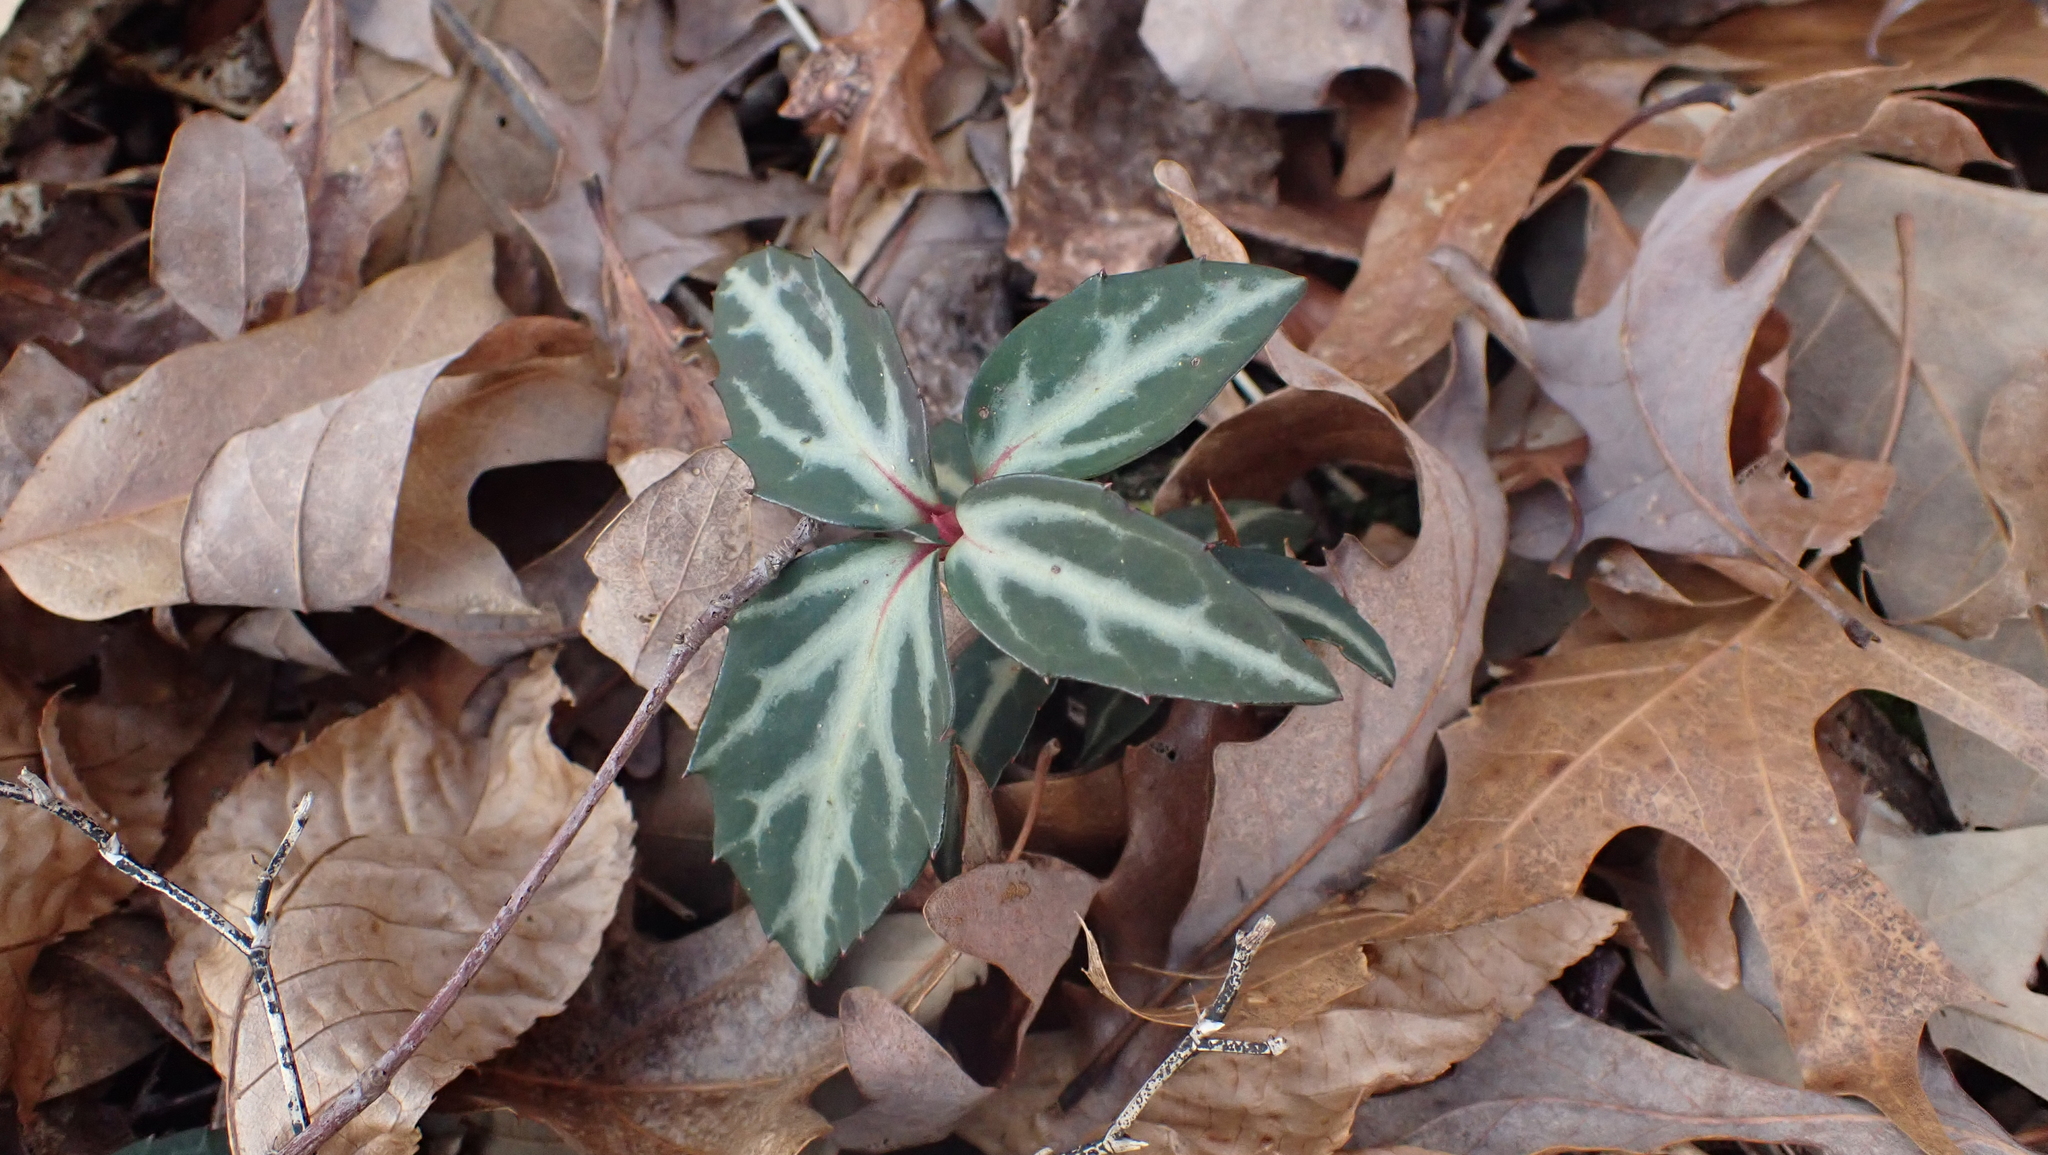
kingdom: Plantae
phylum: Tracheophyta
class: Magnoliopsida
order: Ericales
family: Ericaceae
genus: Chimaphila
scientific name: Chimaphila maculata
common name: Spotted pipsissewa
